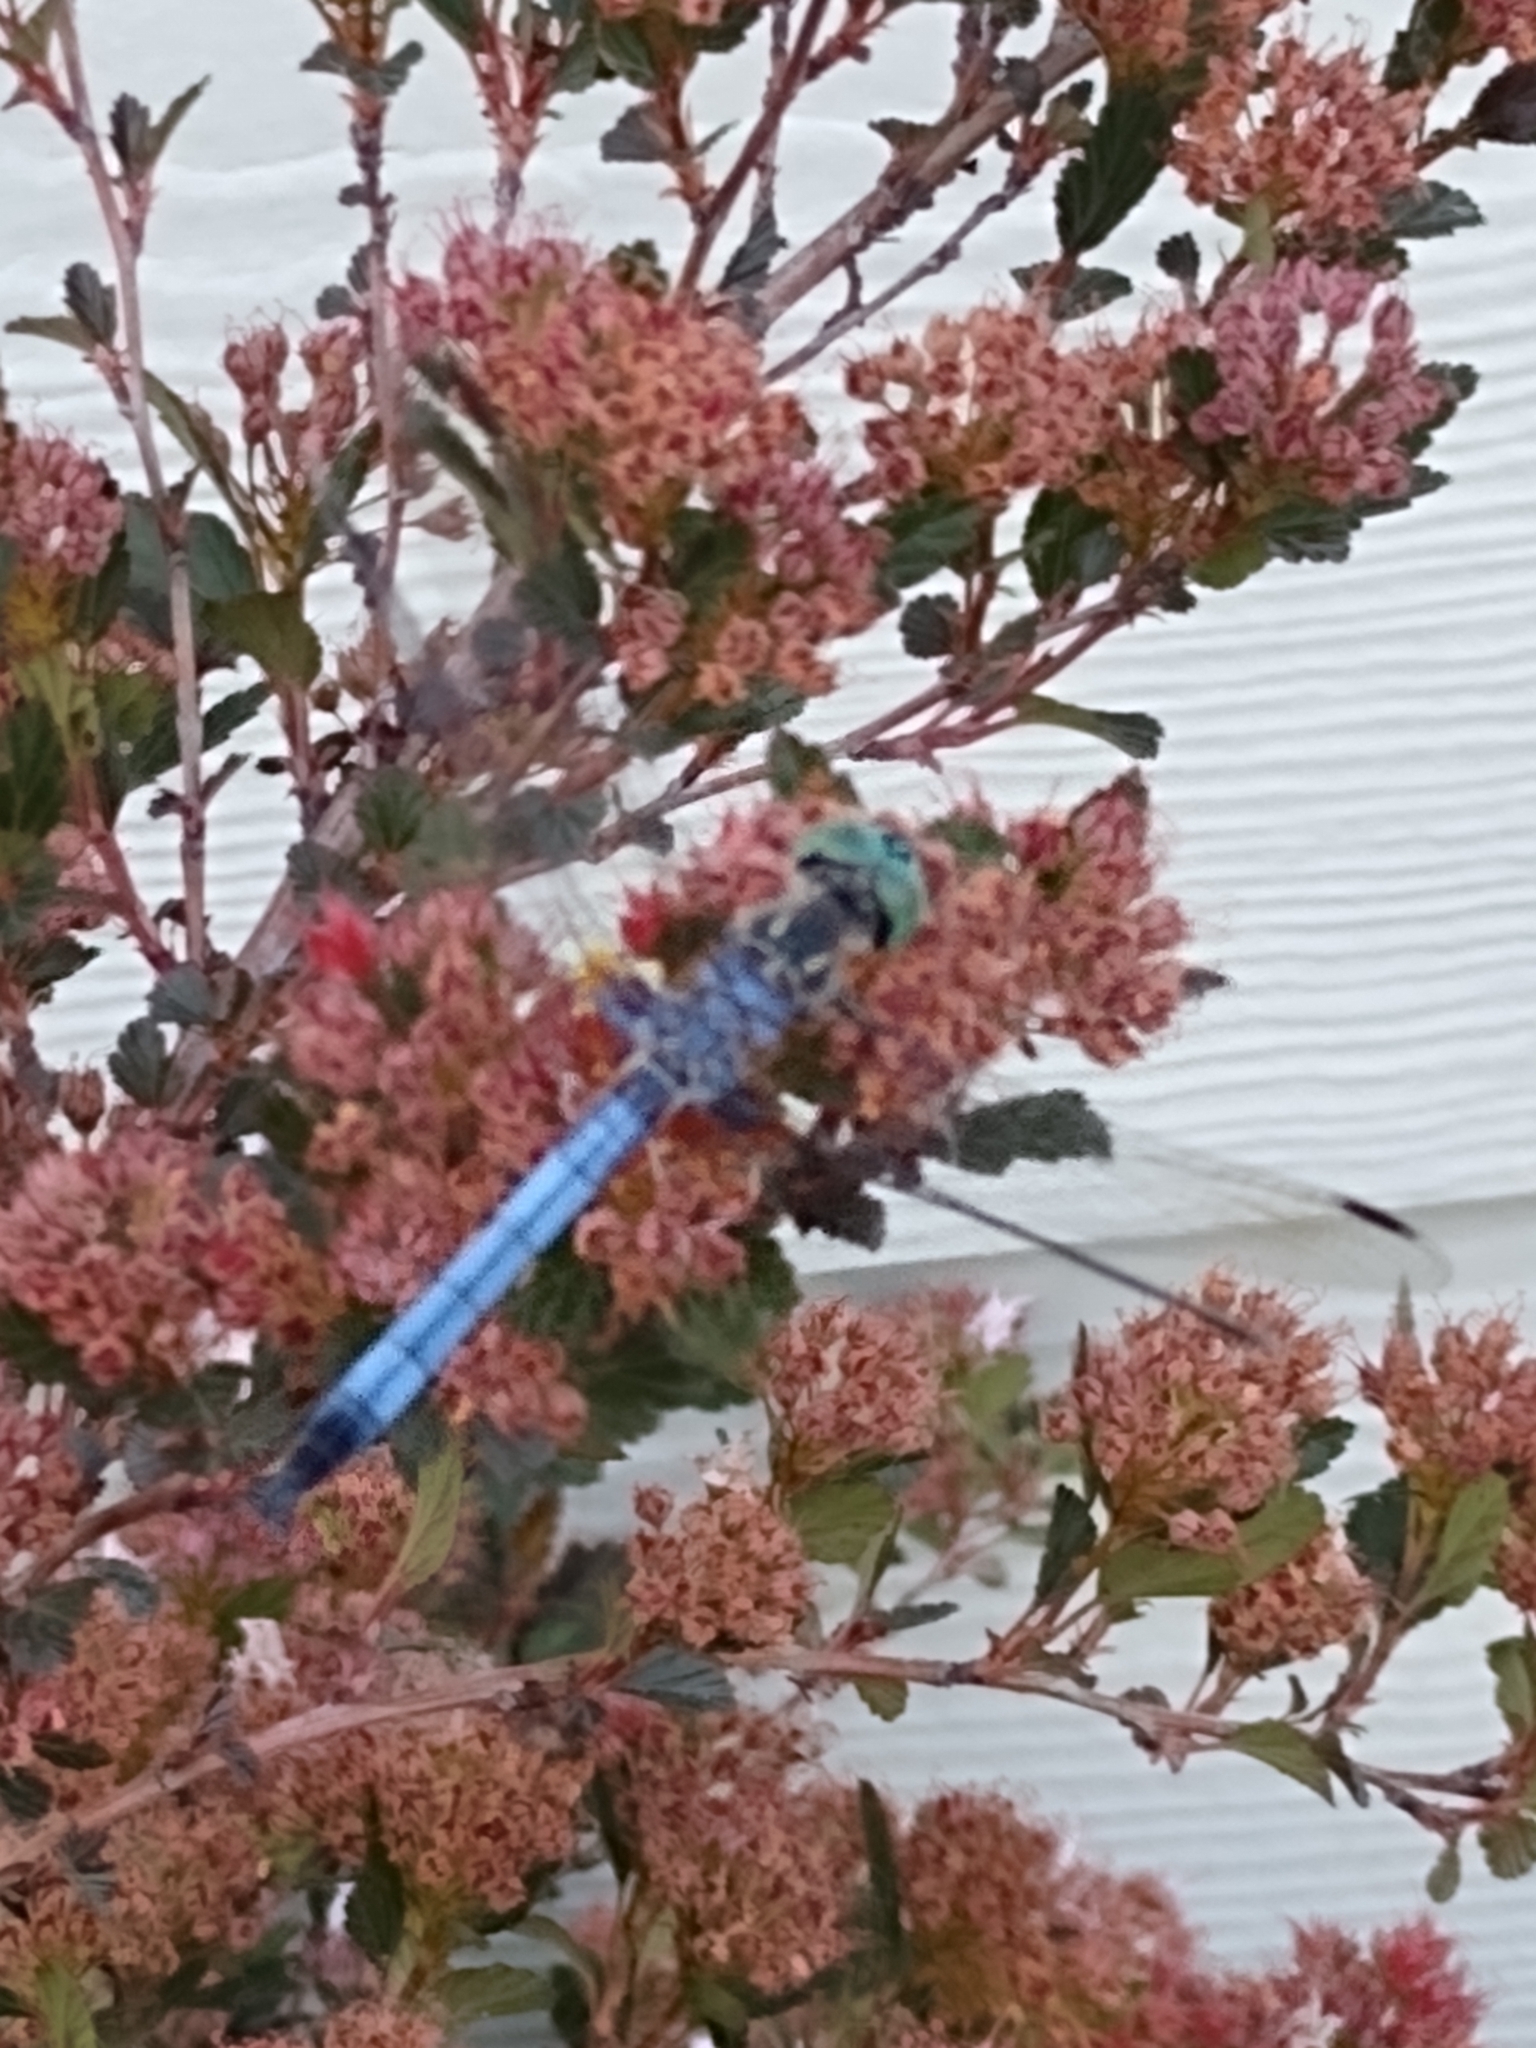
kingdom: Animalia
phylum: Arthropoda
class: Insecta
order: Odonata
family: Libellulidae
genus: Pachydiplax
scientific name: Pachydiplax longipennis
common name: Blue dasher
